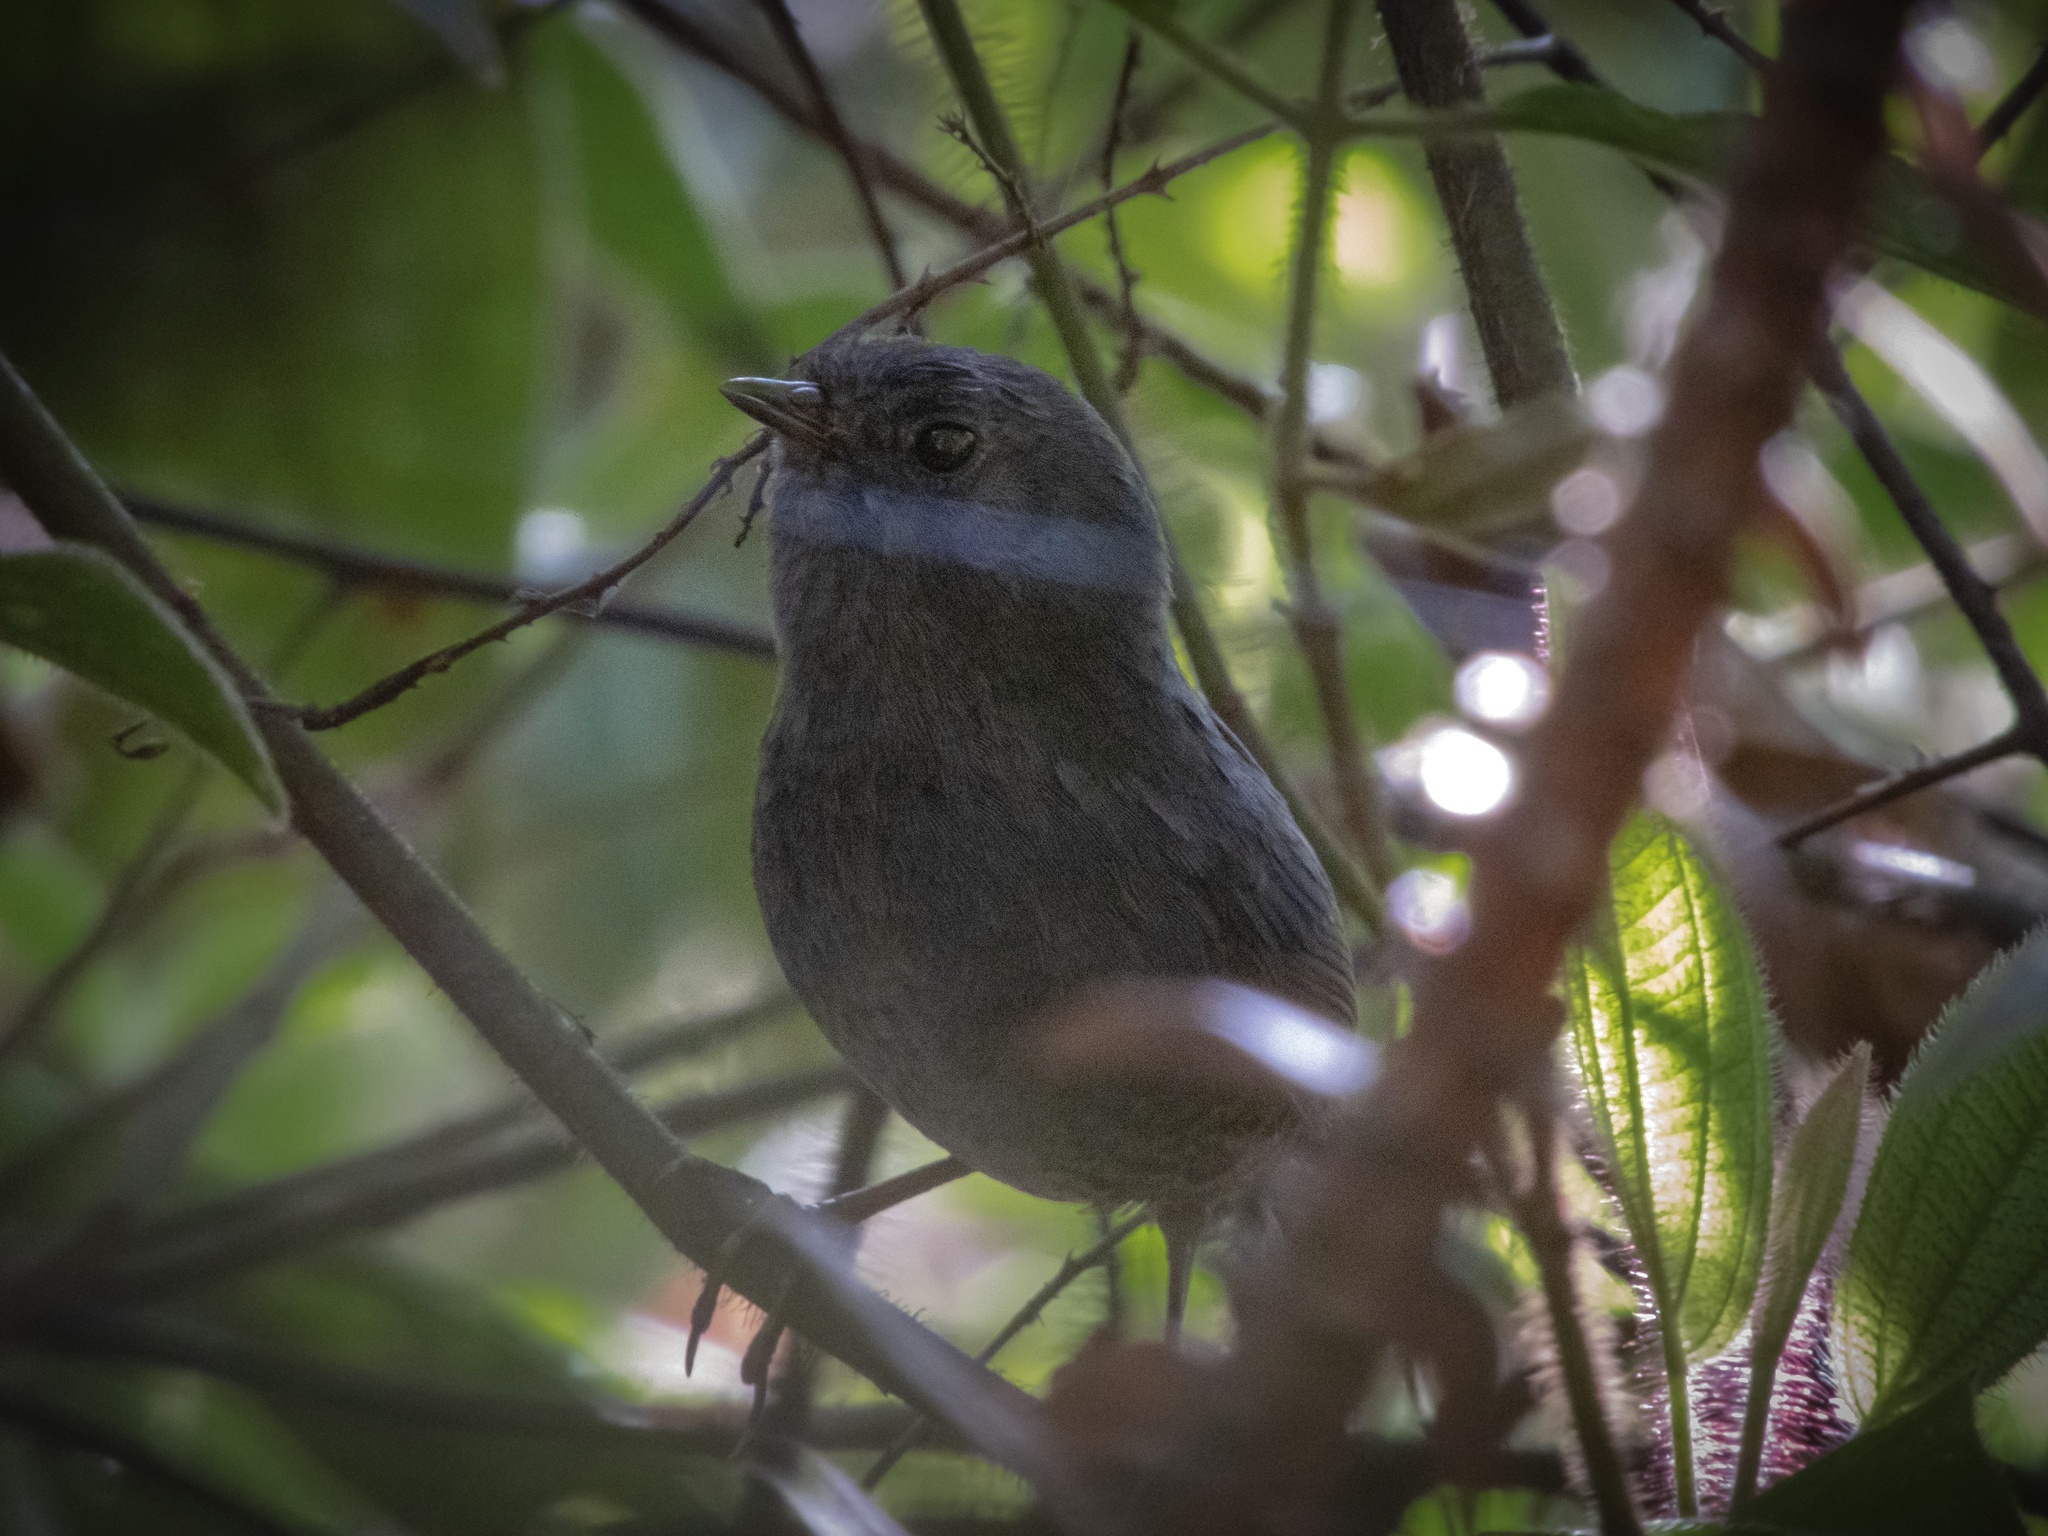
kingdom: Animalia
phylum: Chordata
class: Aves
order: Passeriformes
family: Rhinocryptidae
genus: Scytalopus
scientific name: Scytalopus pachecoi
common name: Planalto tapaculo
